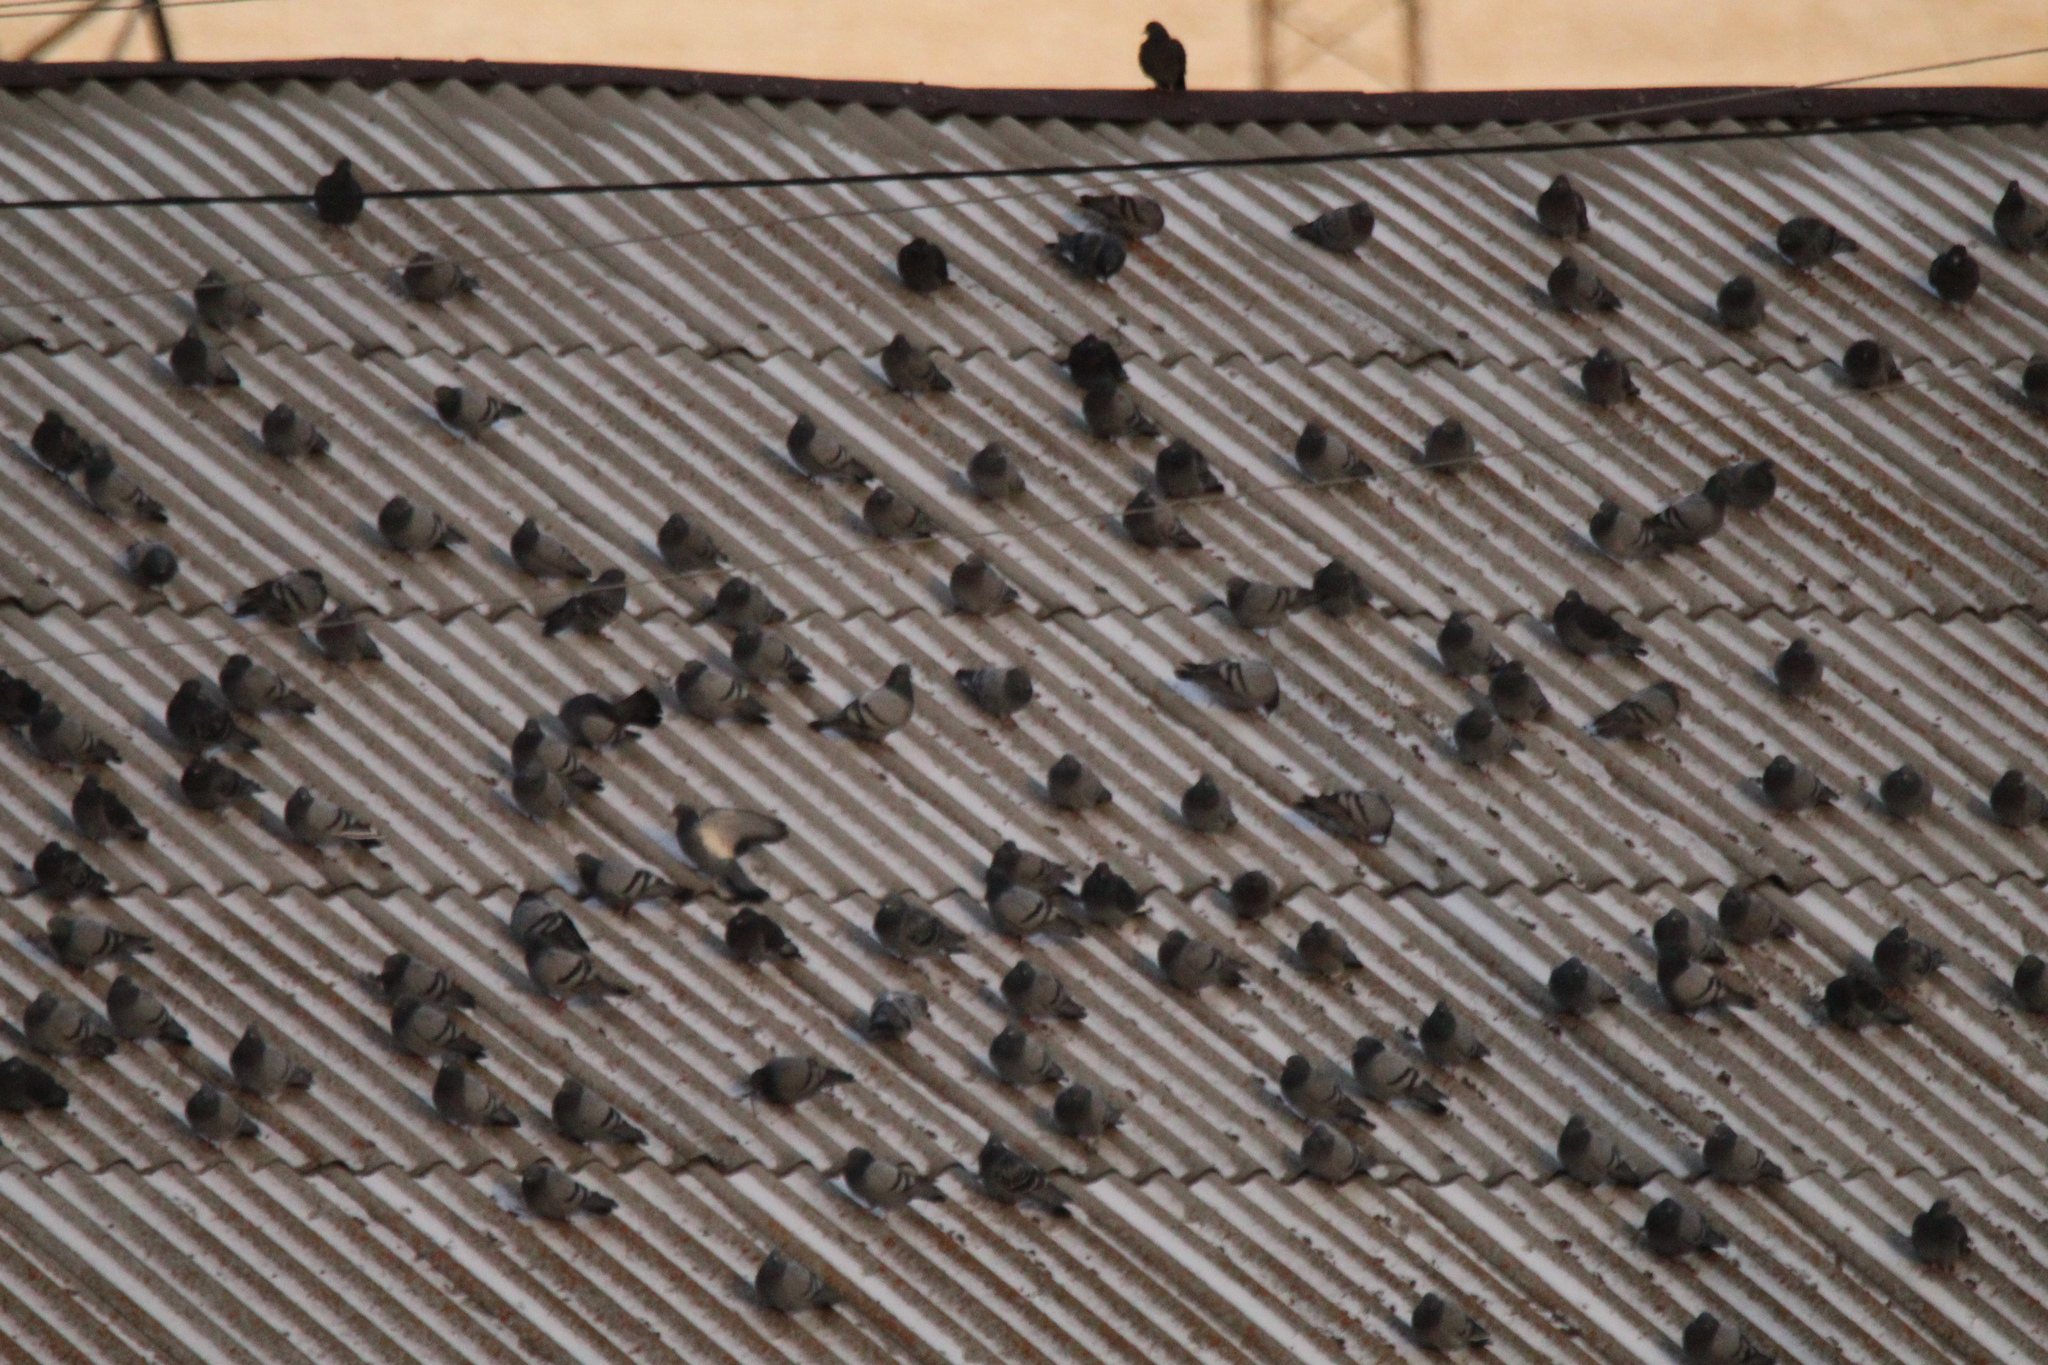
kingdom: Animalia
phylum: Chordata
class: Aves
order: Columbiformes
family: Columbidae
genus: Columba
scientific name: Columba livia
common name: Rock pigeon
